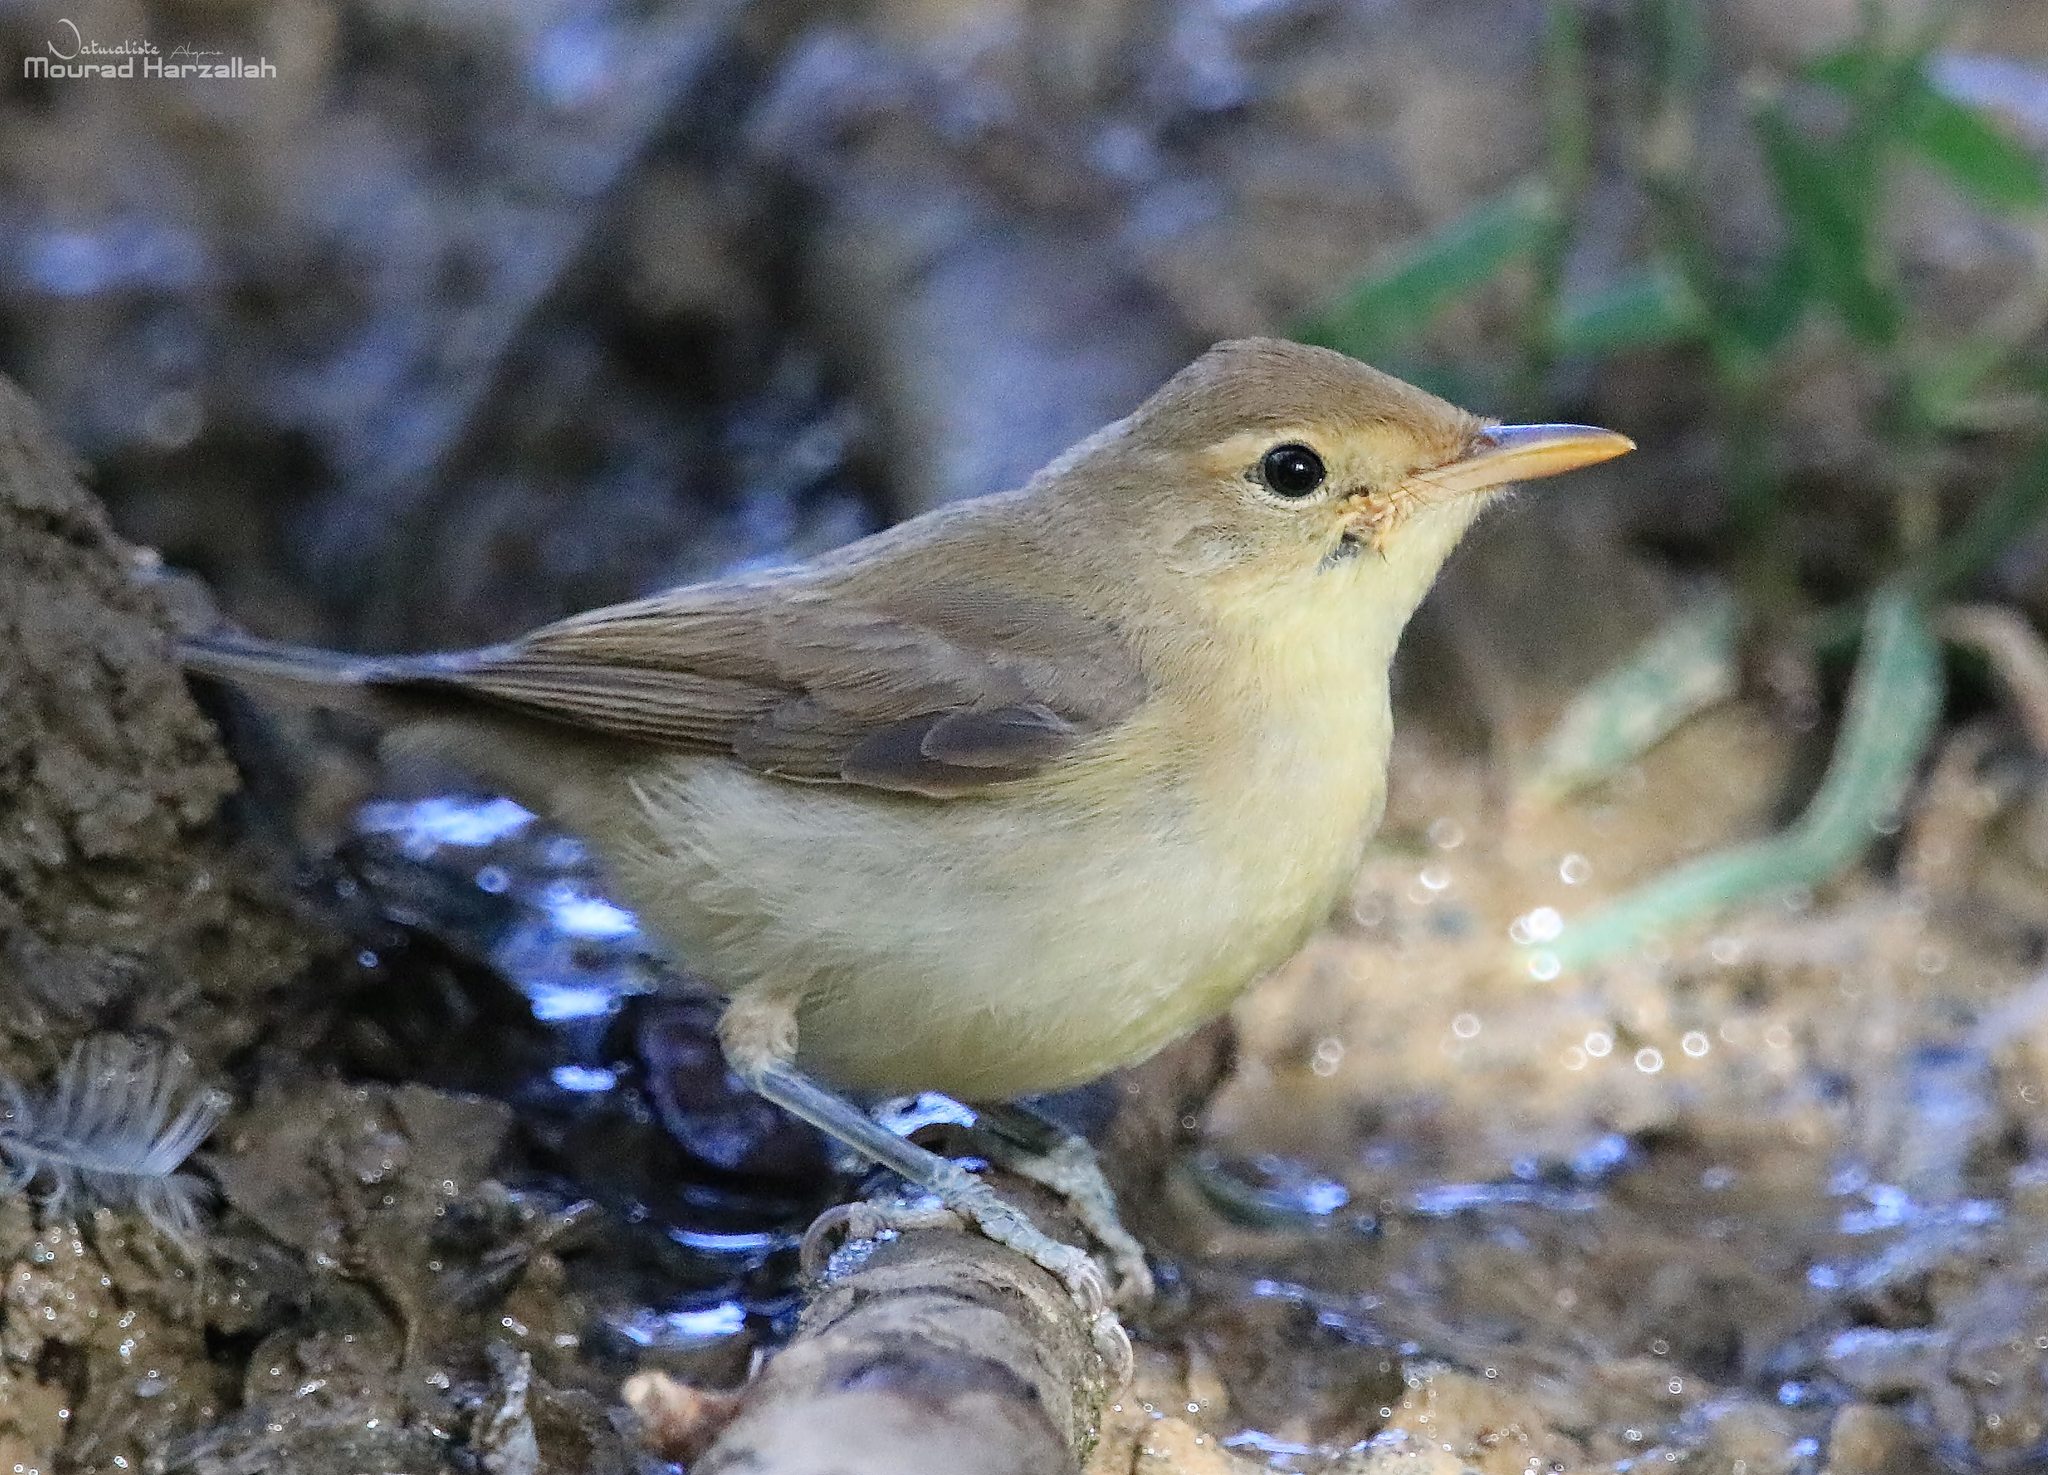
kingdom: Animalia
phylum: Chordata
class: Aves
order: Passeriformes
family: Acrocephalidae
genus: Hippolais
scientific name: Hippolais polyglotta
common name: Melodious warbler
